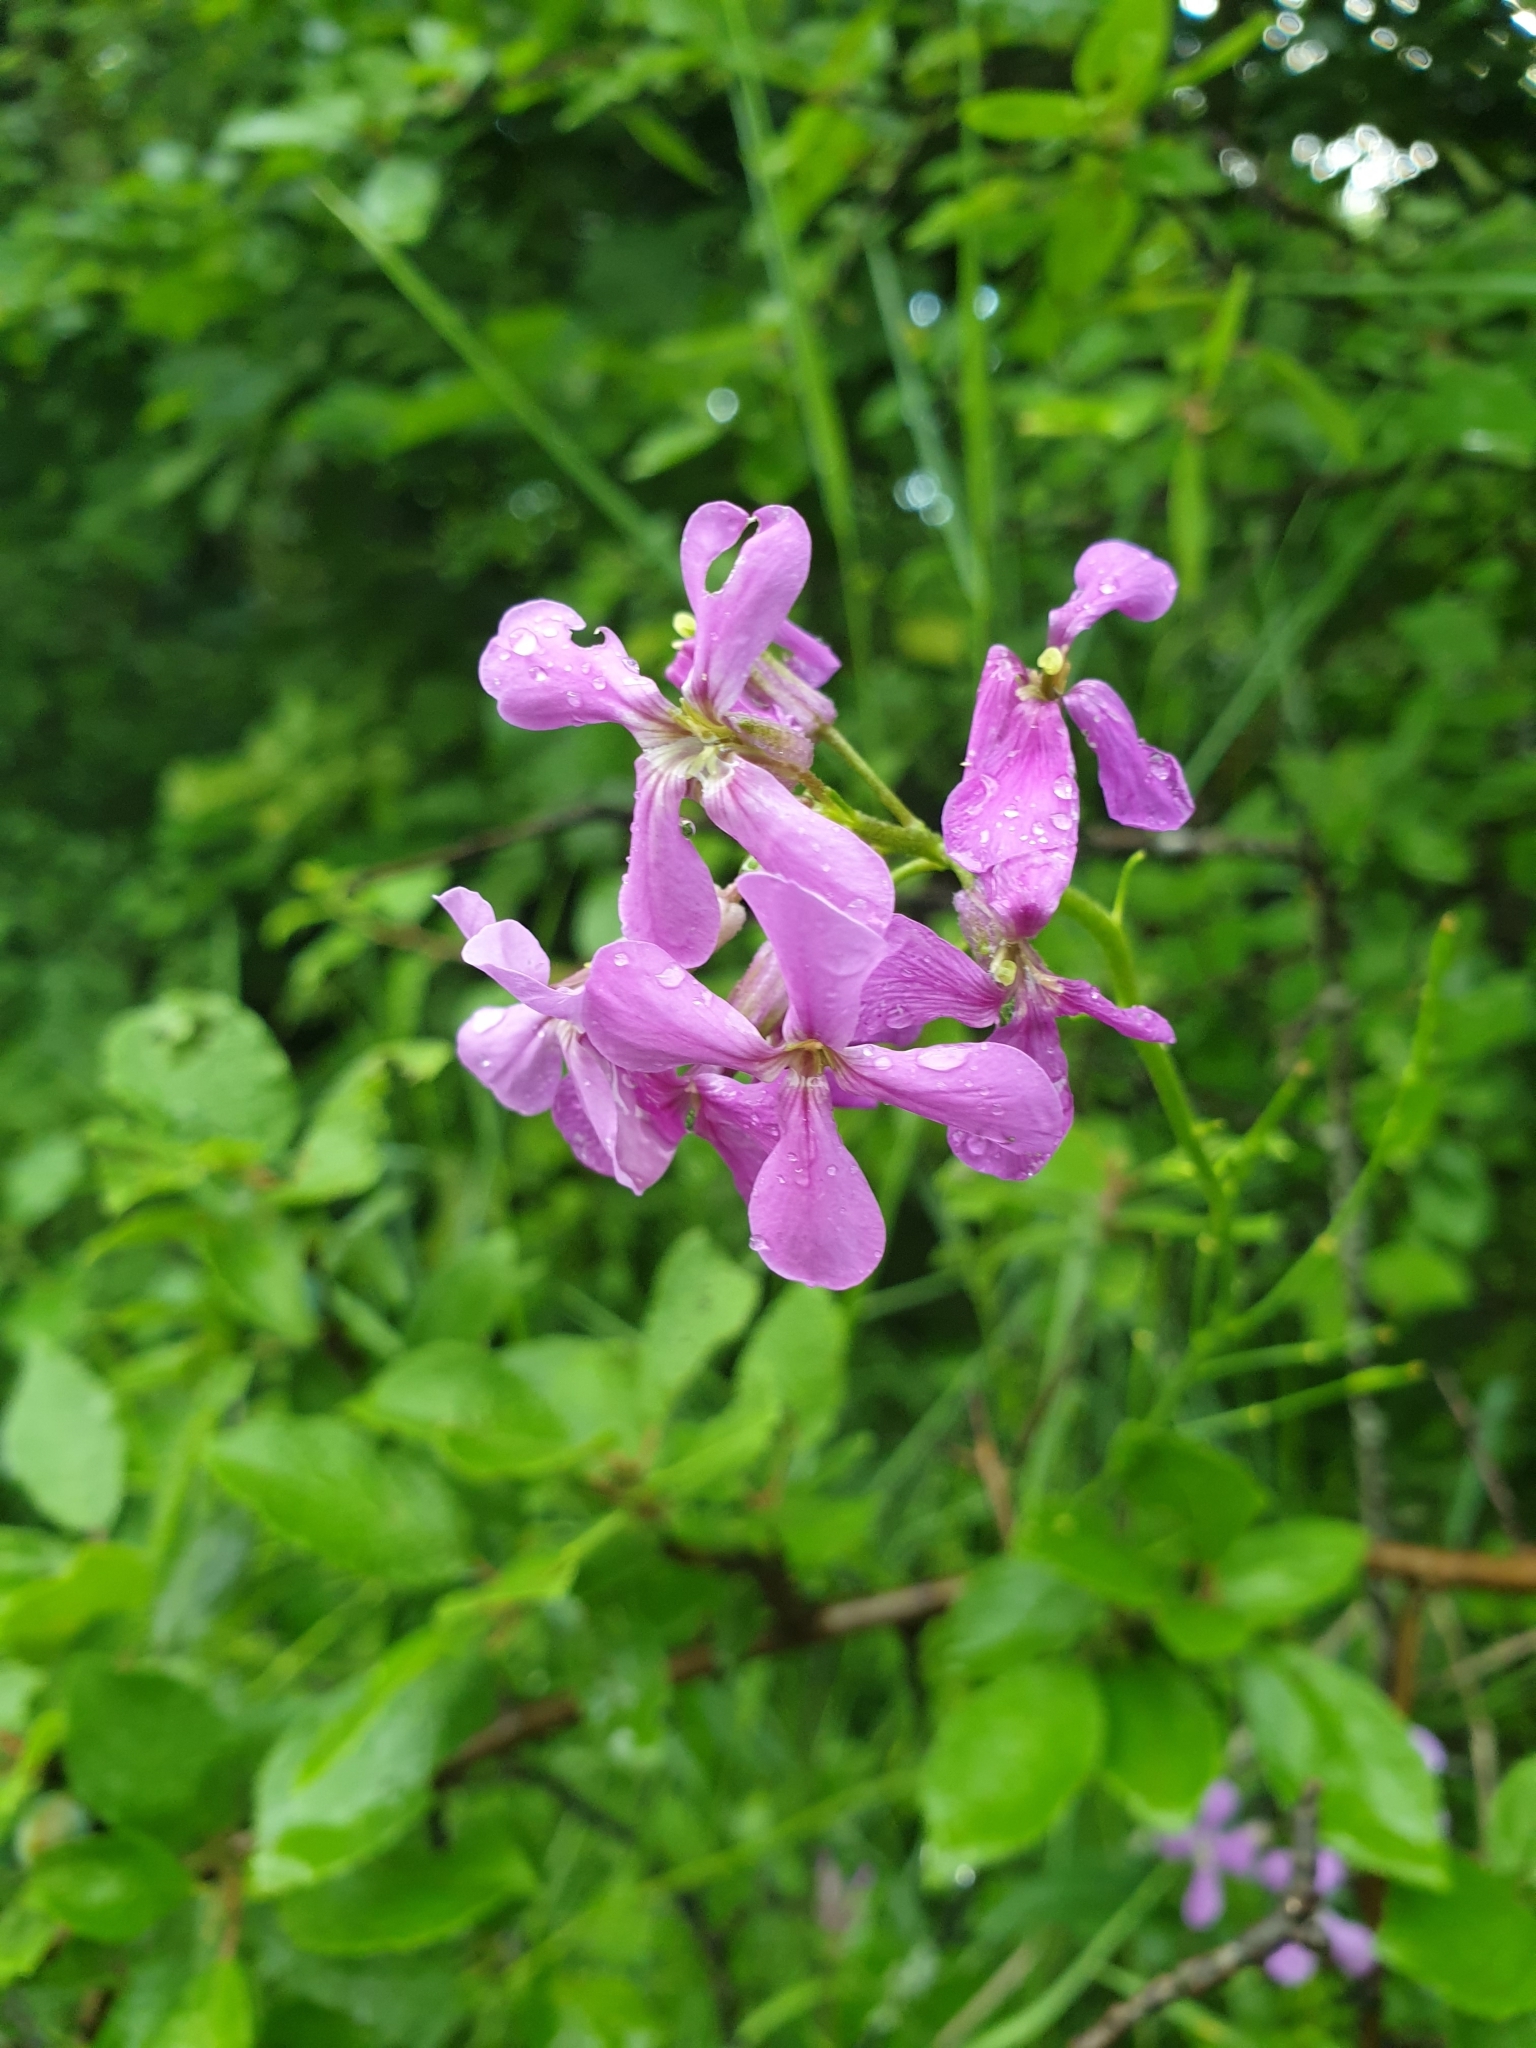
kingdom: Plantae
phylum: Tracheophyta
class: Magnoliopsida
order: Brassicales
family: Brassicaceae
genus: Hesperis
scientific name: Hesperis matronalis
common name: Dame's-violet
